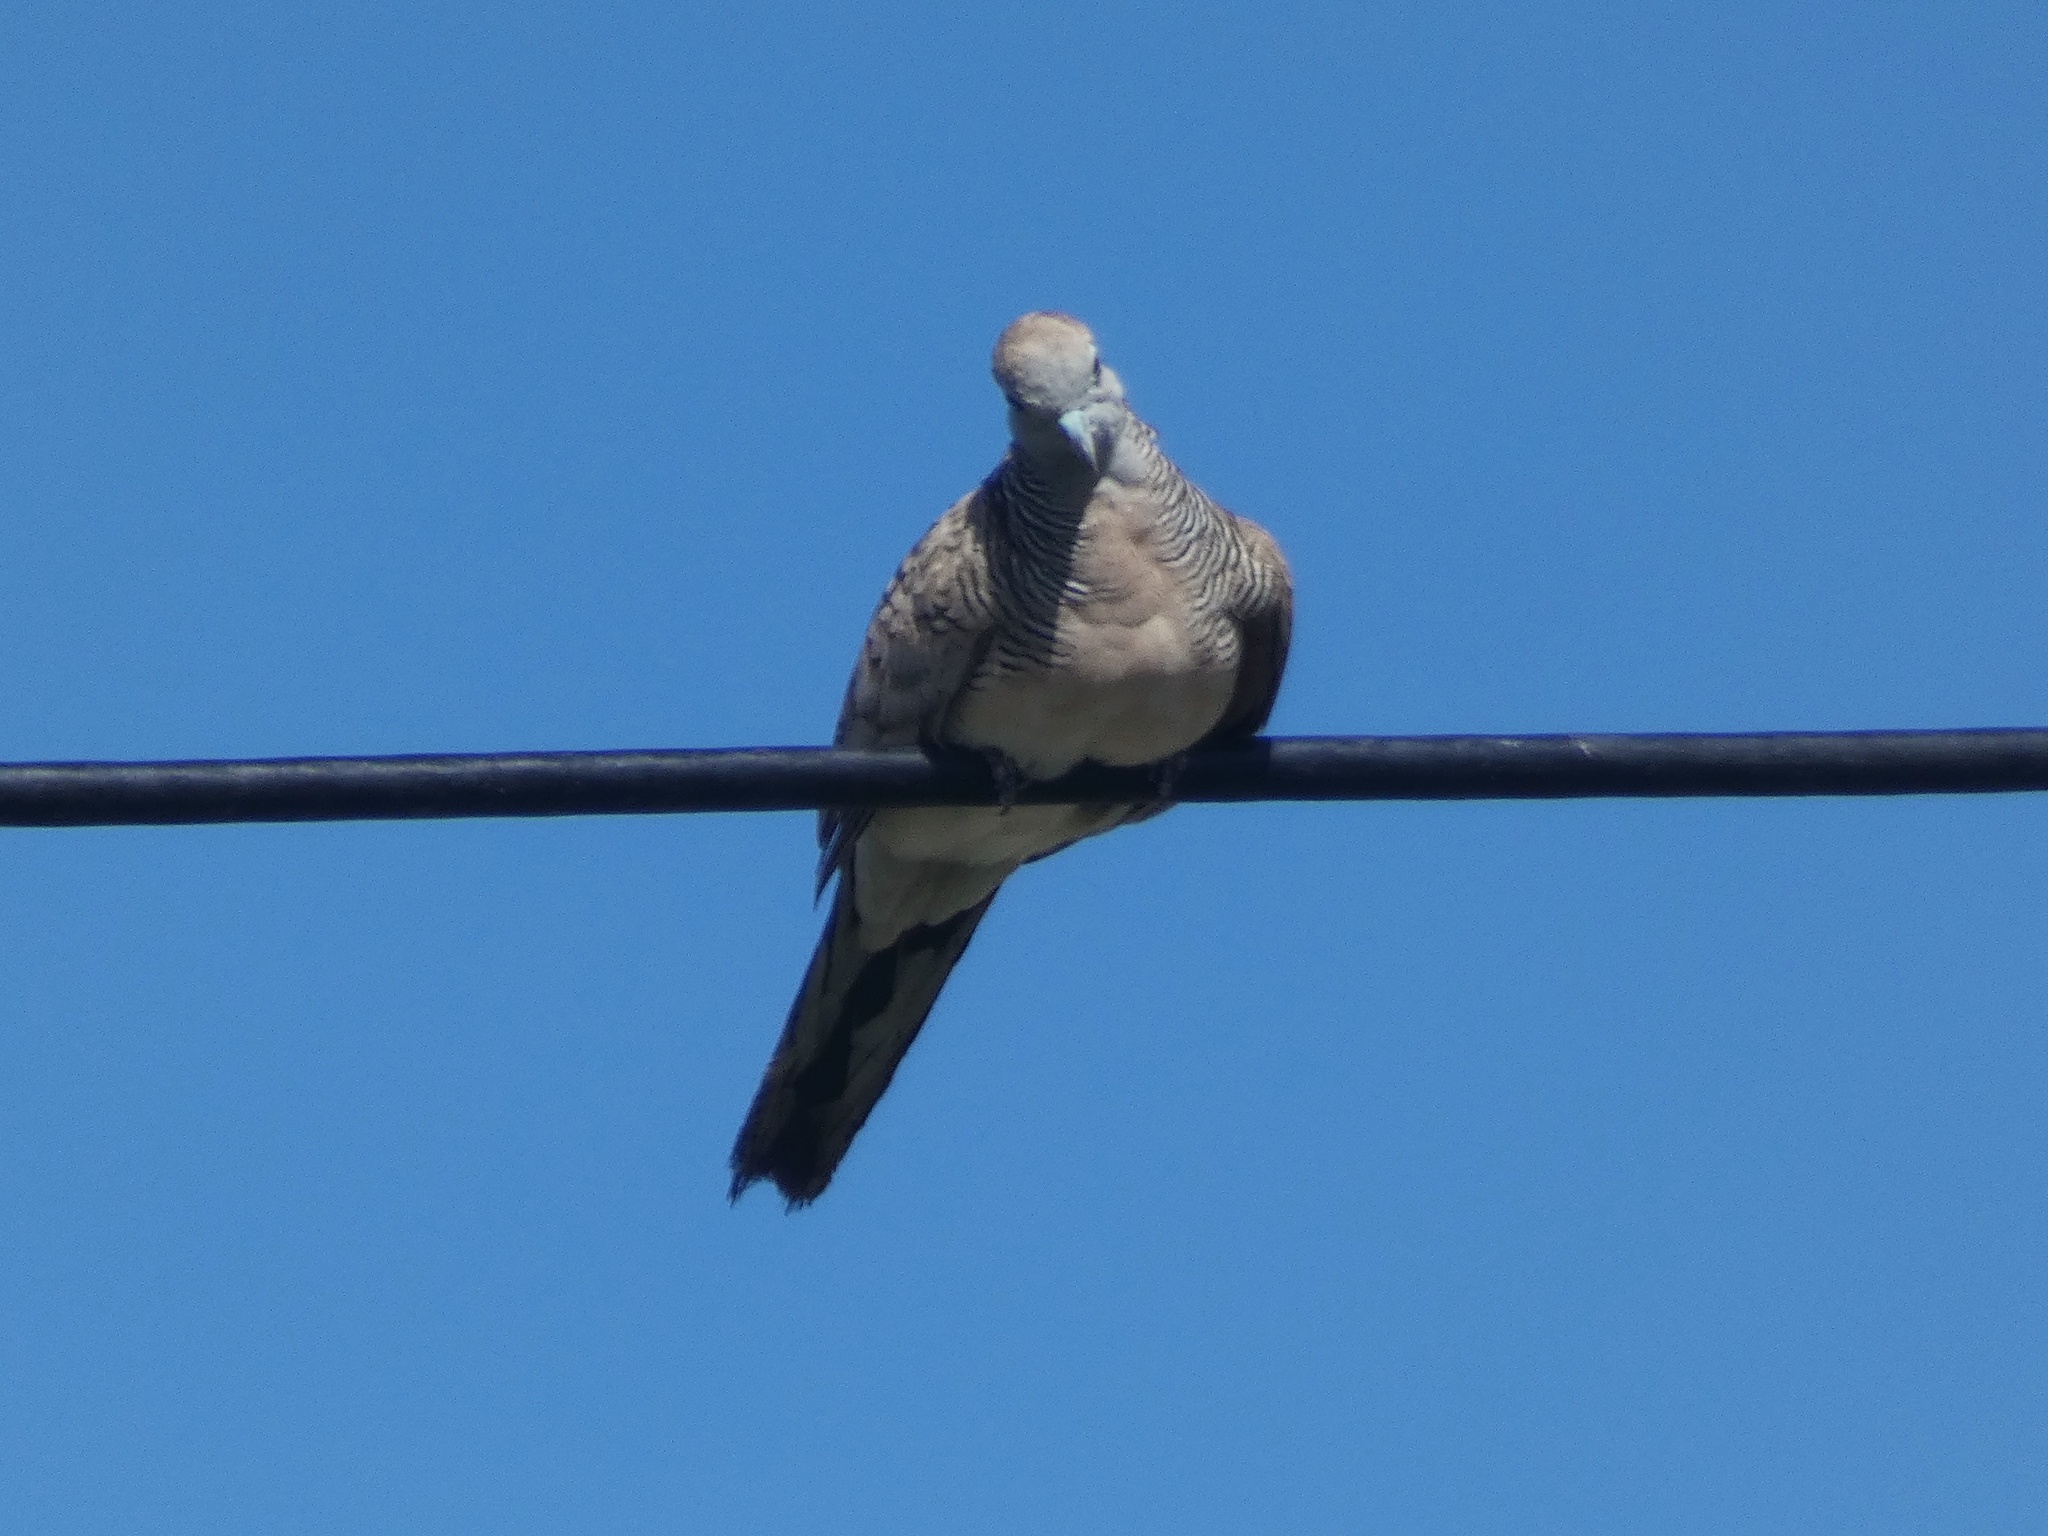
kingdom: Animalia
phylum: Chordata
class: Aves
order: Columbiformes
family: Columbidae
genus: Geopelia
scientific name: Geopelia striata
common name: Zebra dove
